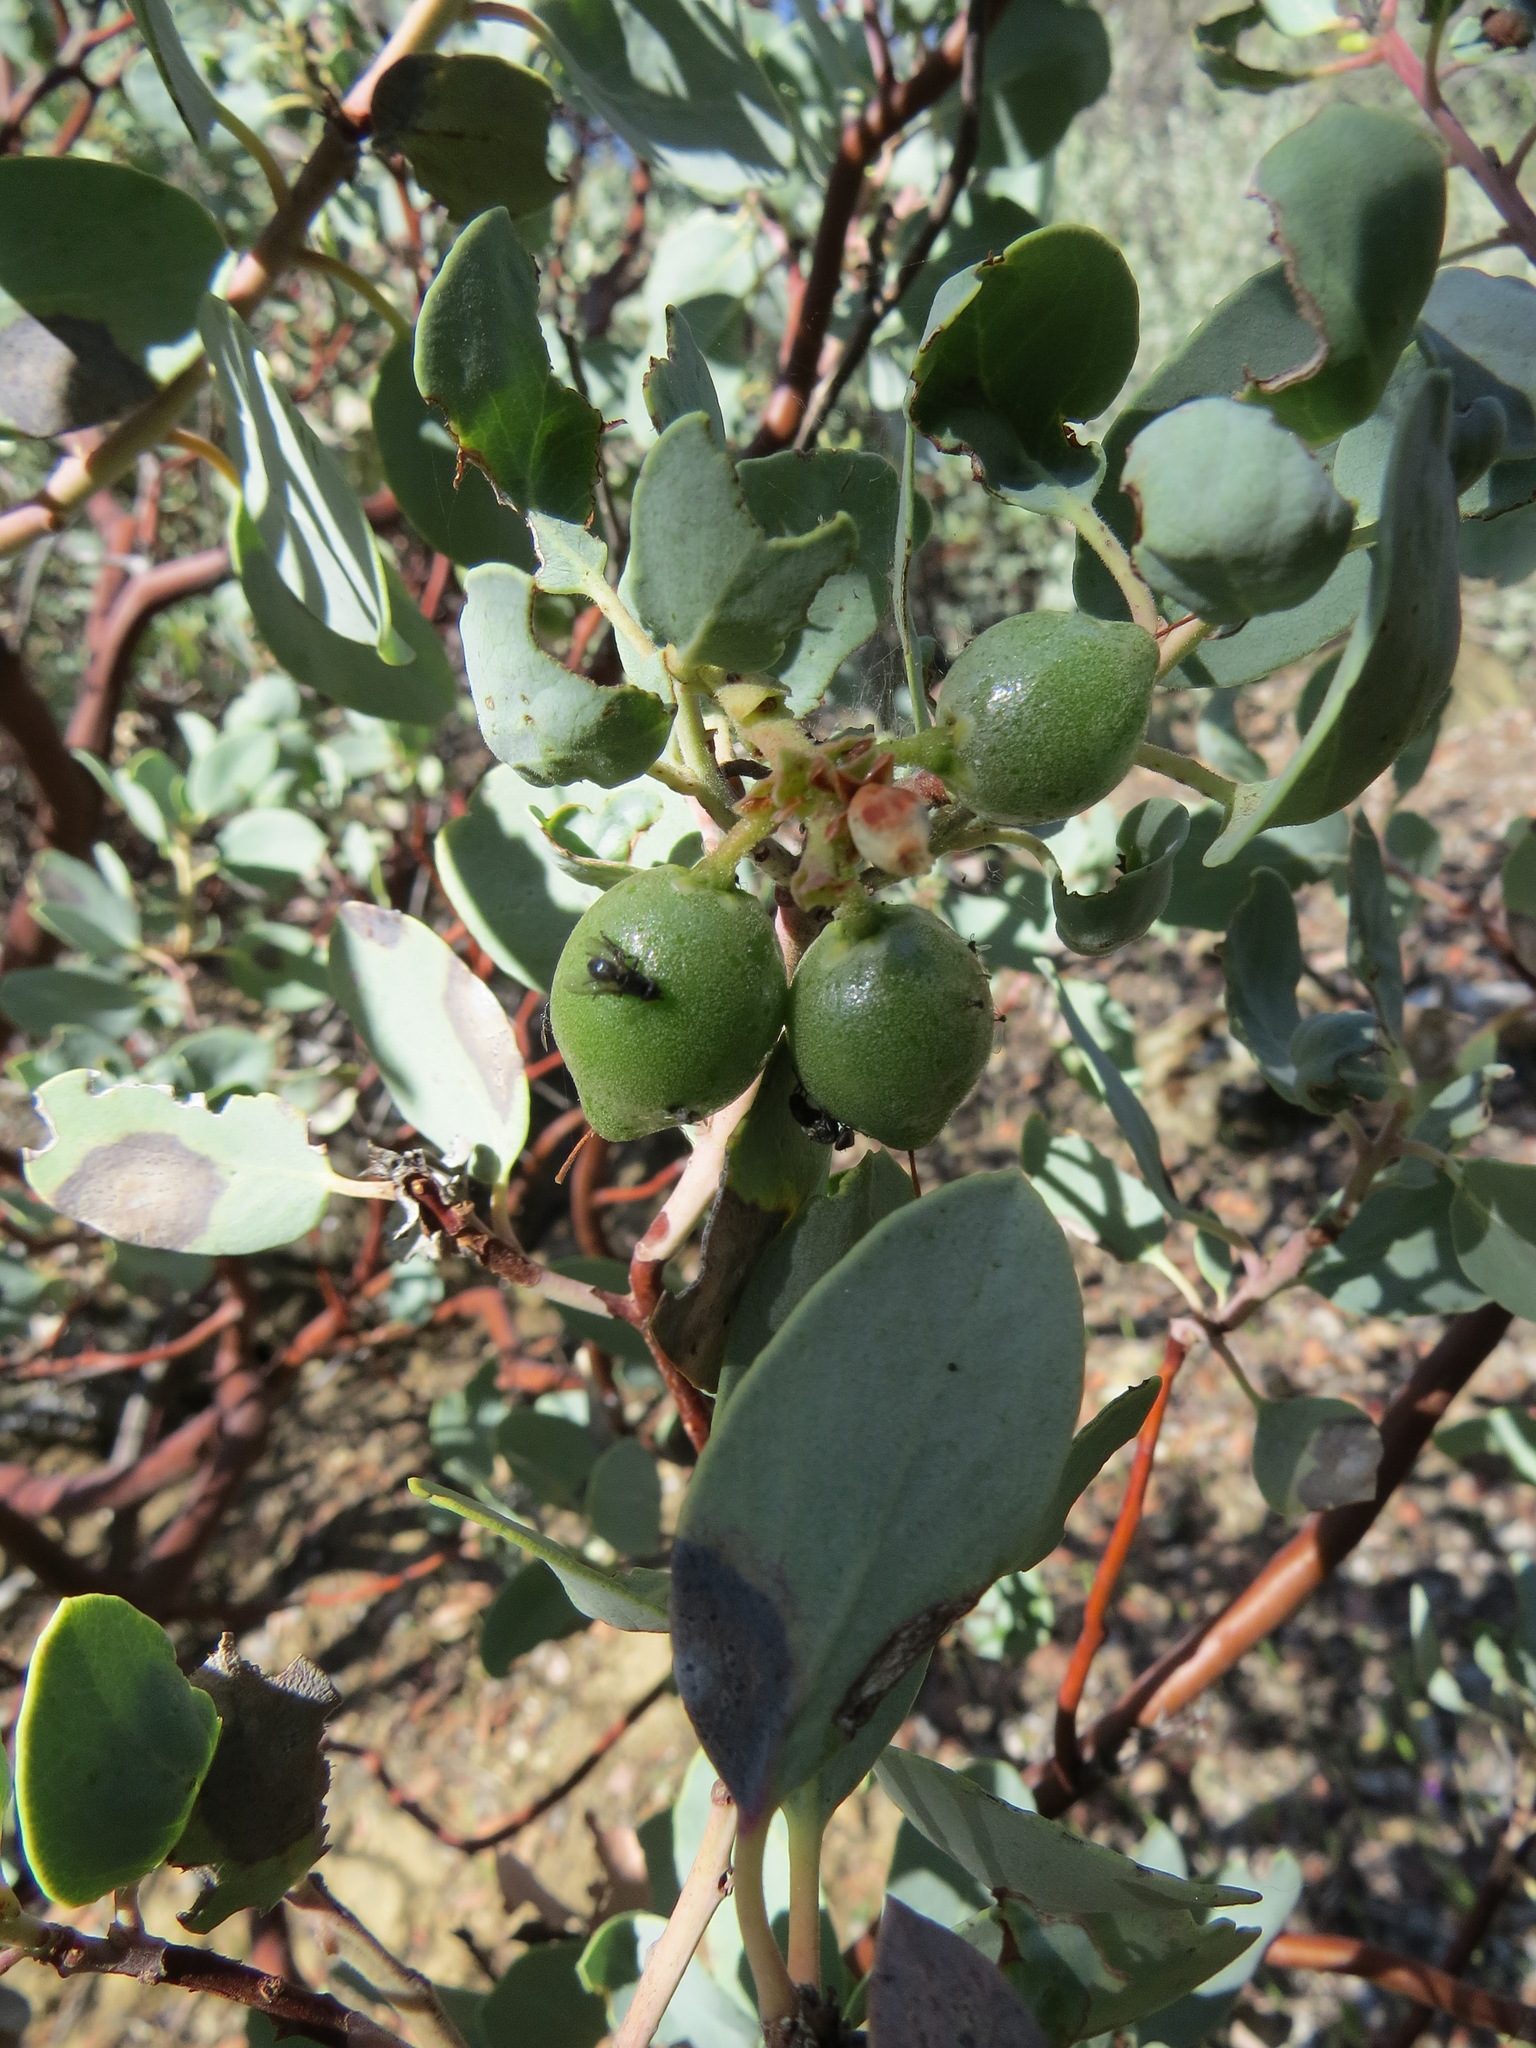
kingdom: Plantae
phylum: Tracheophyta
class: Magnoliopsida
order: Ericales
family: Ericaceae
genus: Arctostaphylos
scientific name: Arctostaphylos glauca
